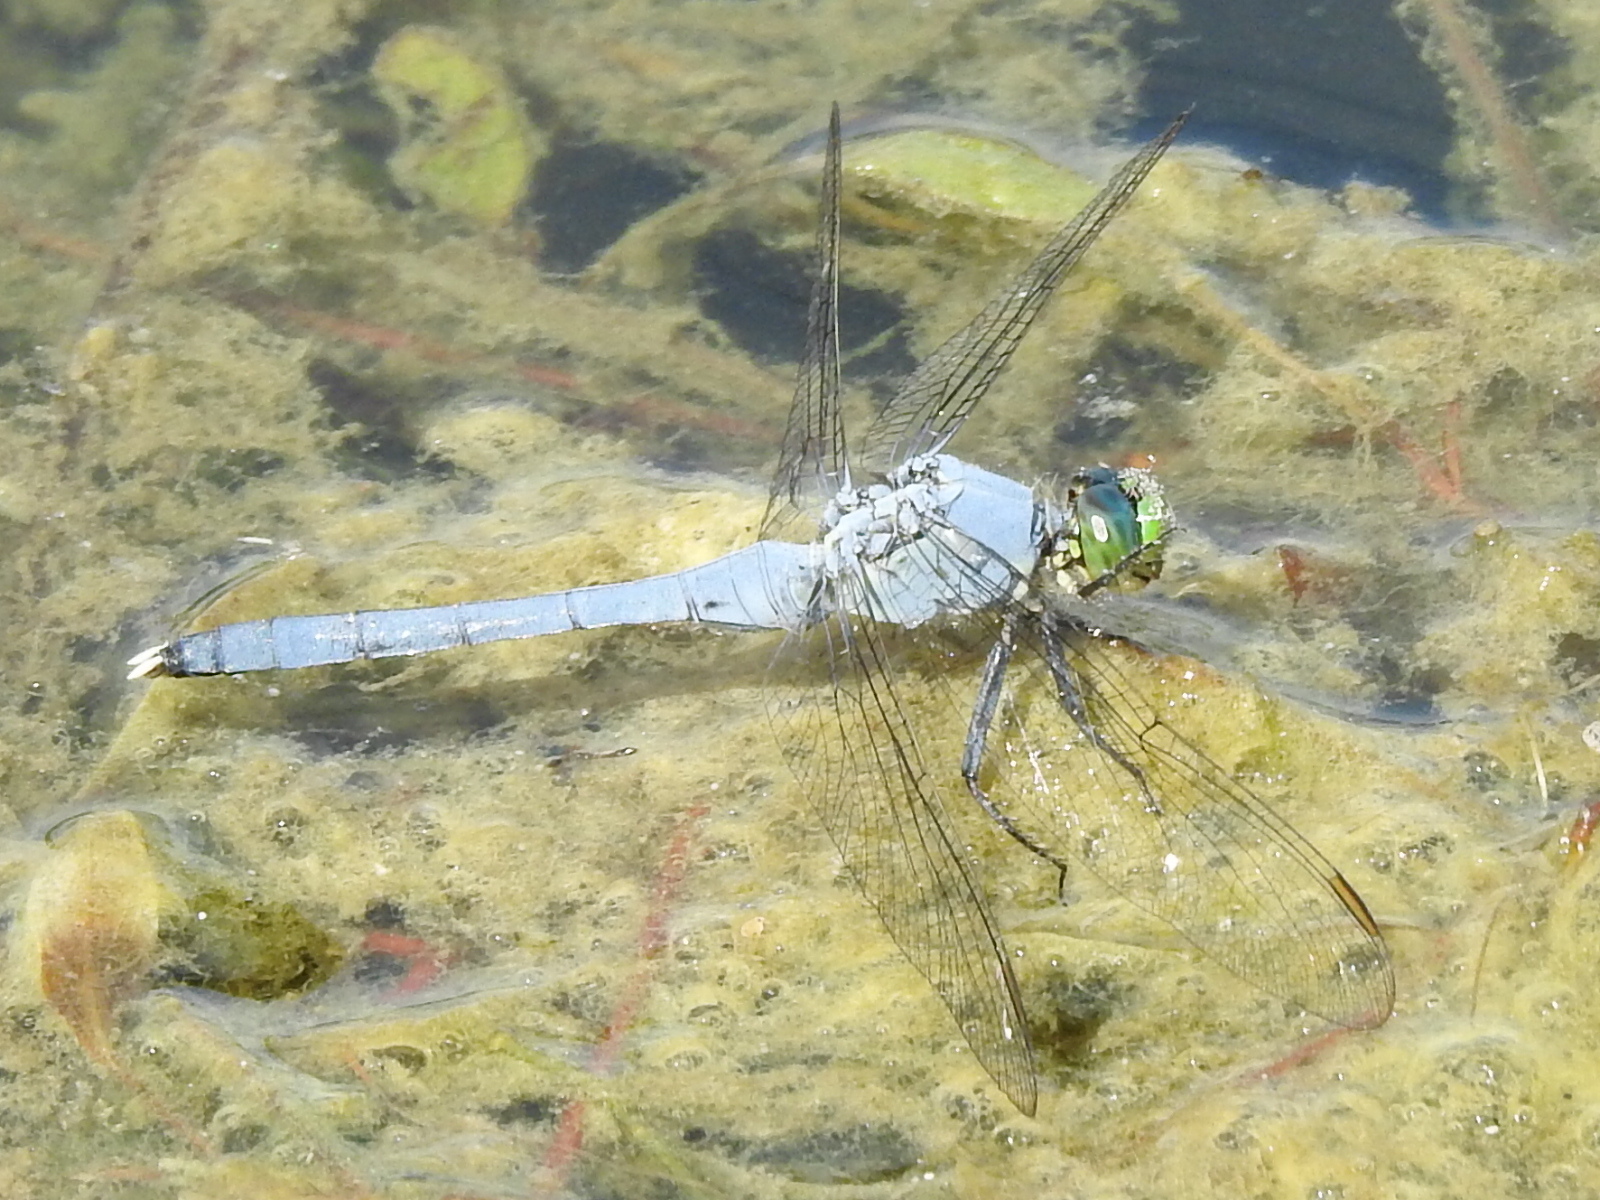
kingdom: Animalia
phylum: Arthropoda
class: Insecta
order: Odonata
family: Libellulidae
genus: Erythemis
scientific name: Erythemis simplicicollis
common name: Eastern pondhawk
